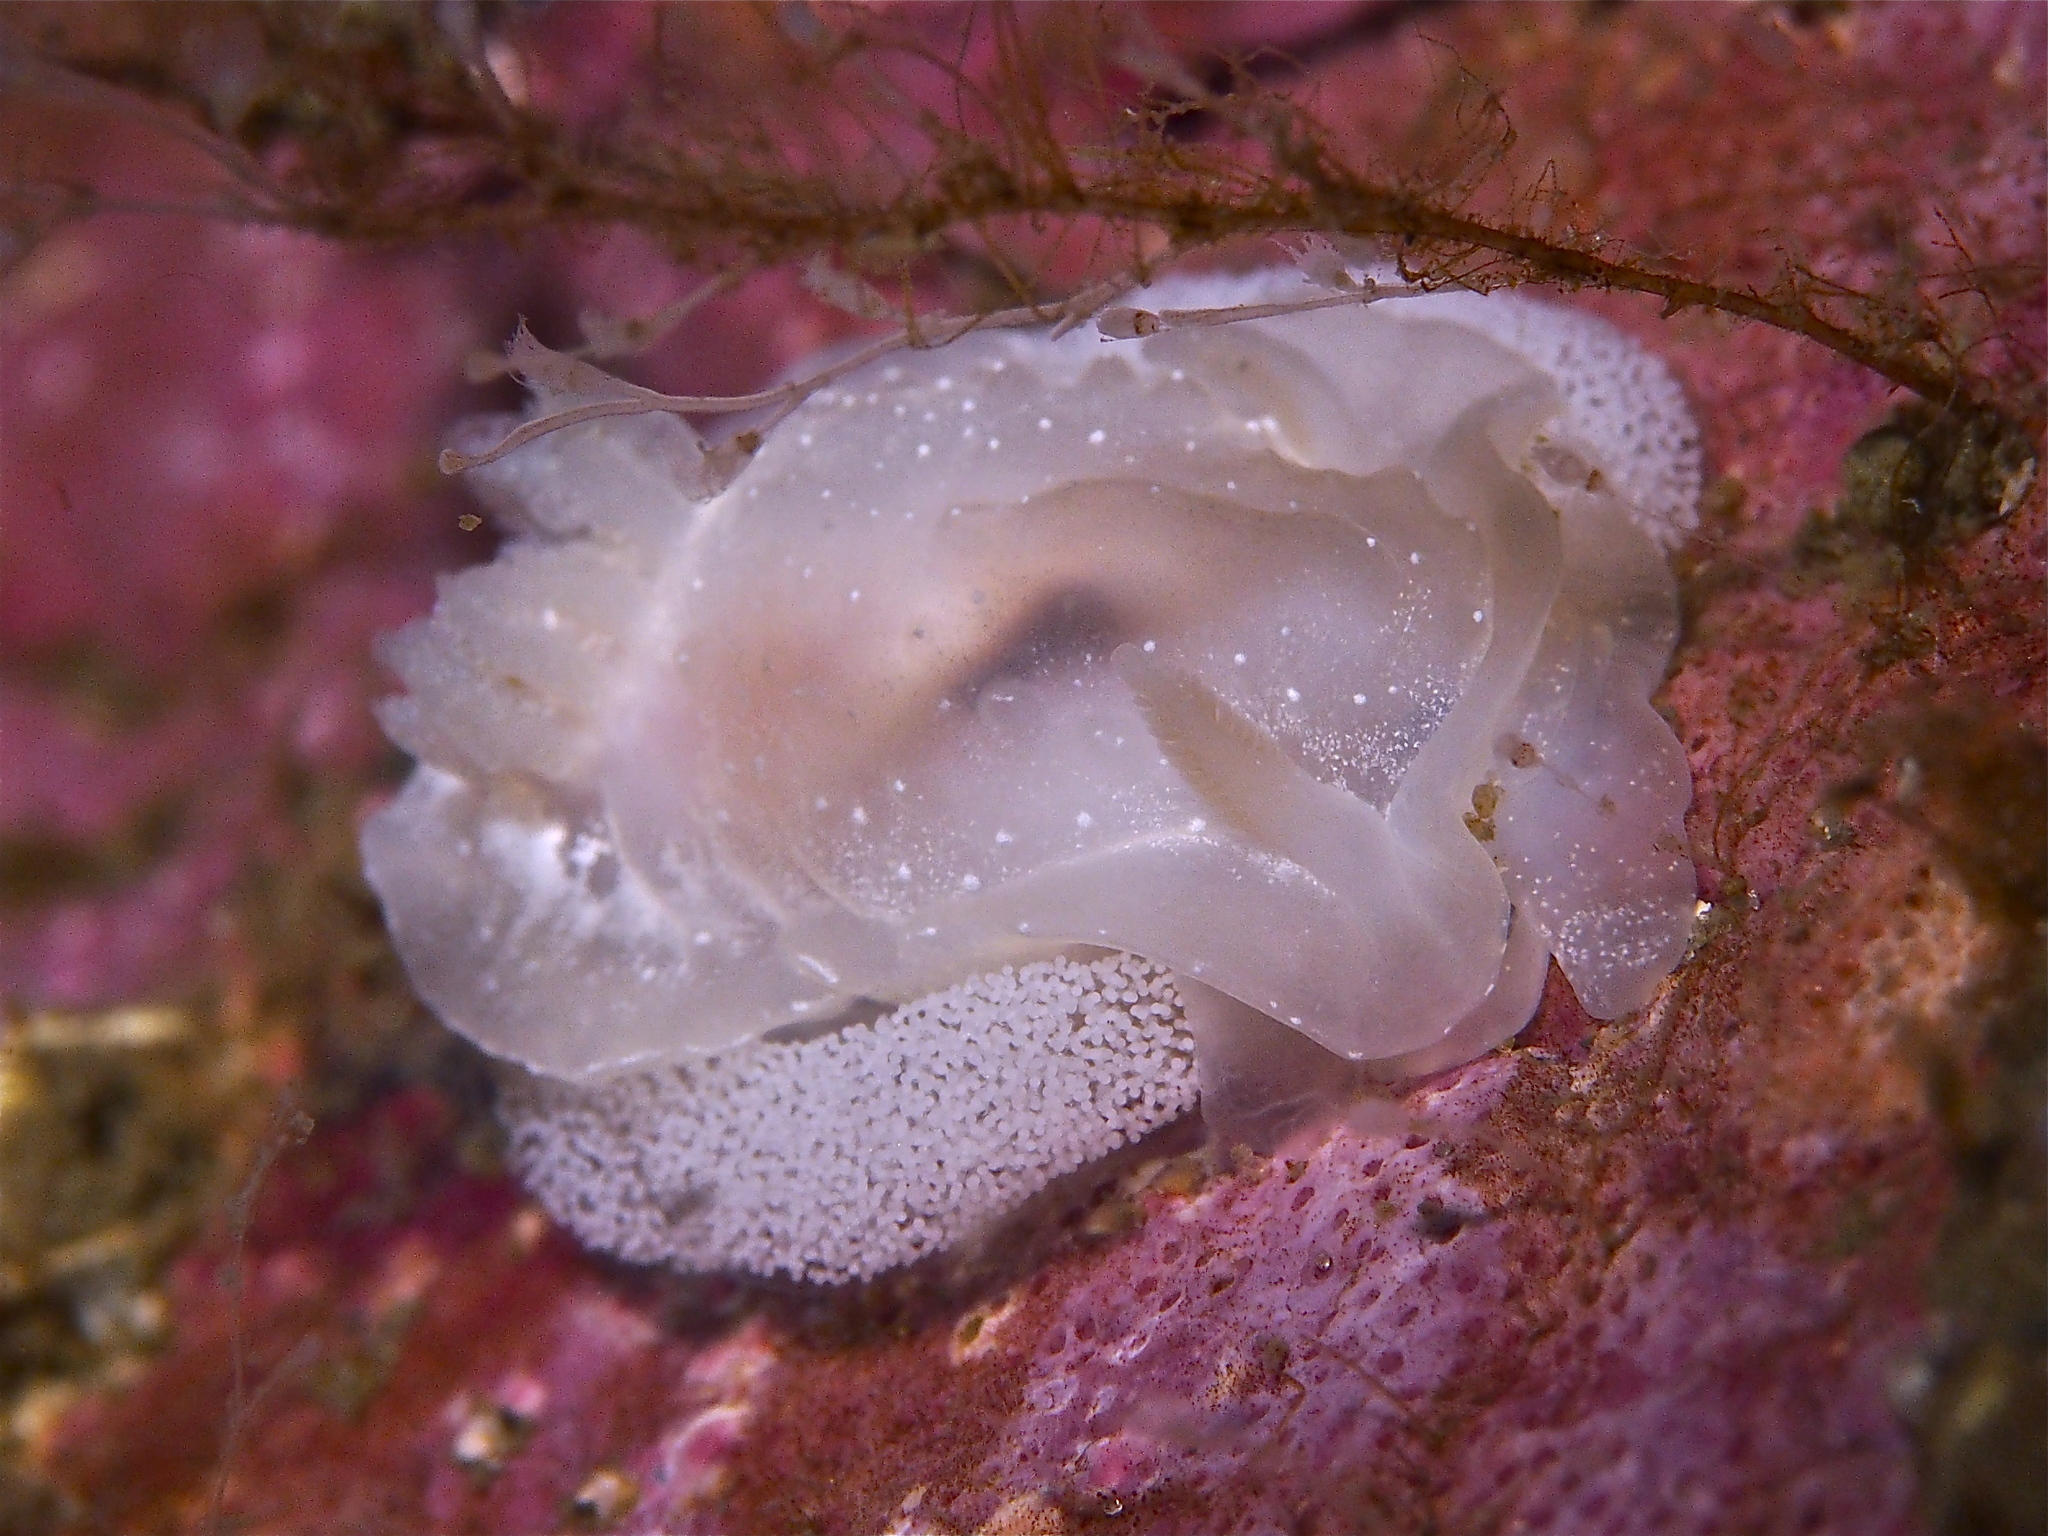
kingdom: Animalia
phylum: Mollusca
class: Gastropoda
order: Nudibranchia
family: Goniodorididae
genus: Okenia
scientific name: Okenia
